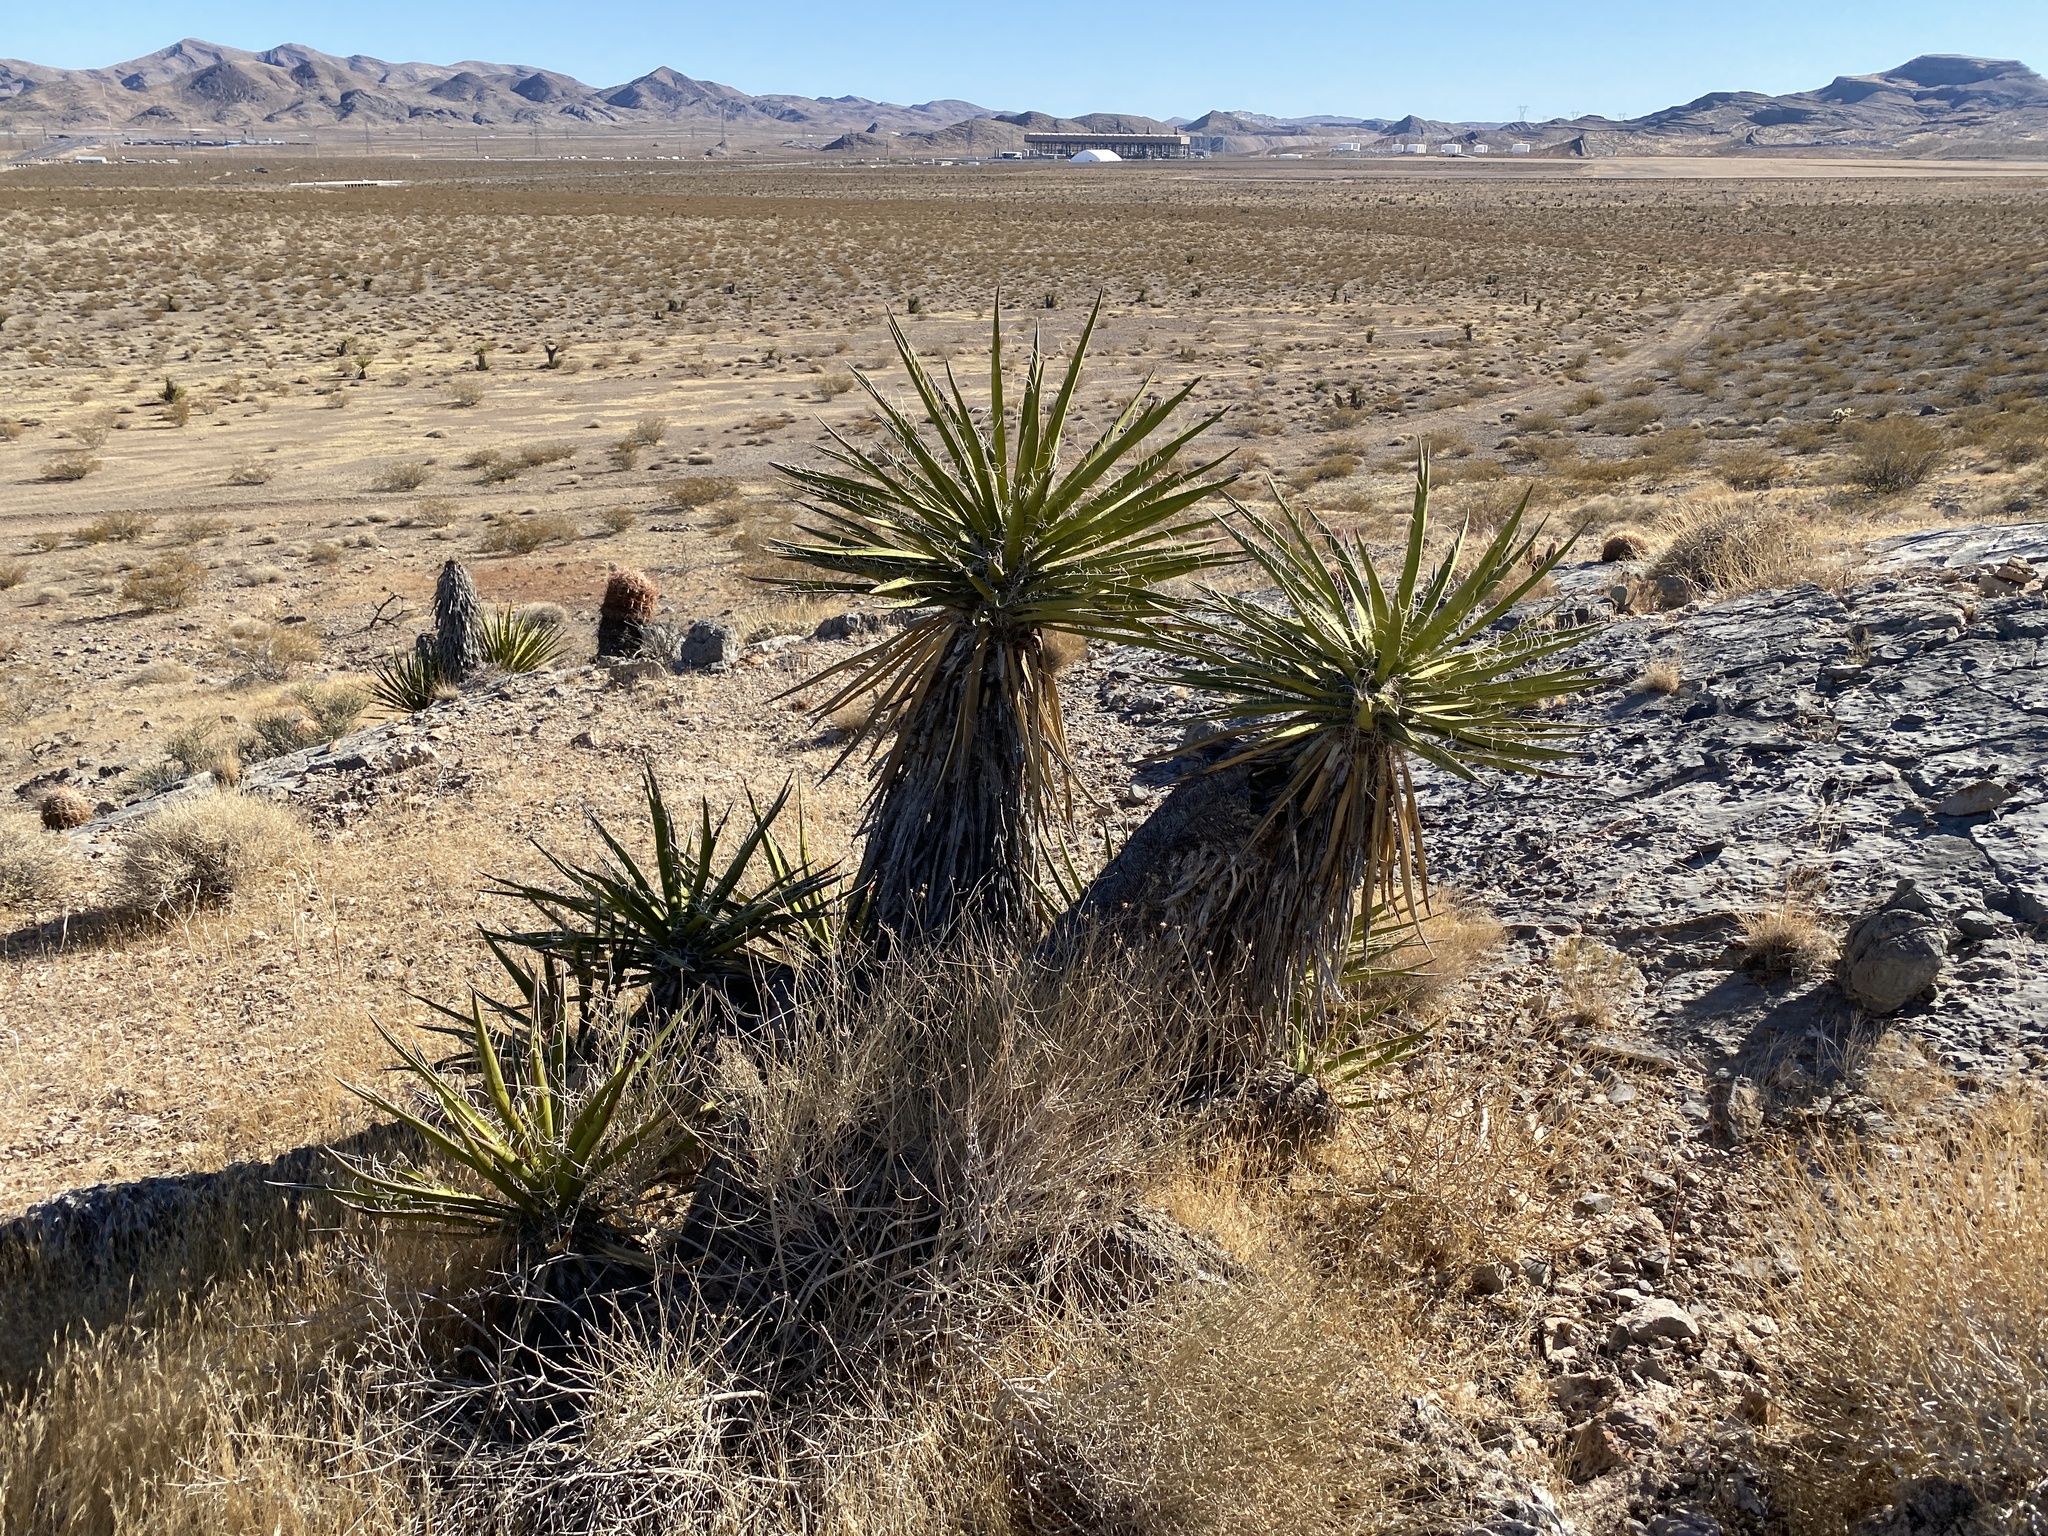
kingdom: Plantae
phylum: Tracheophyta
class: Liliopsida
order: Asparagales
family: Asparagaceae
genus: Yucca
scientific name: Yucca schidigera
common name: Mojave yucca
